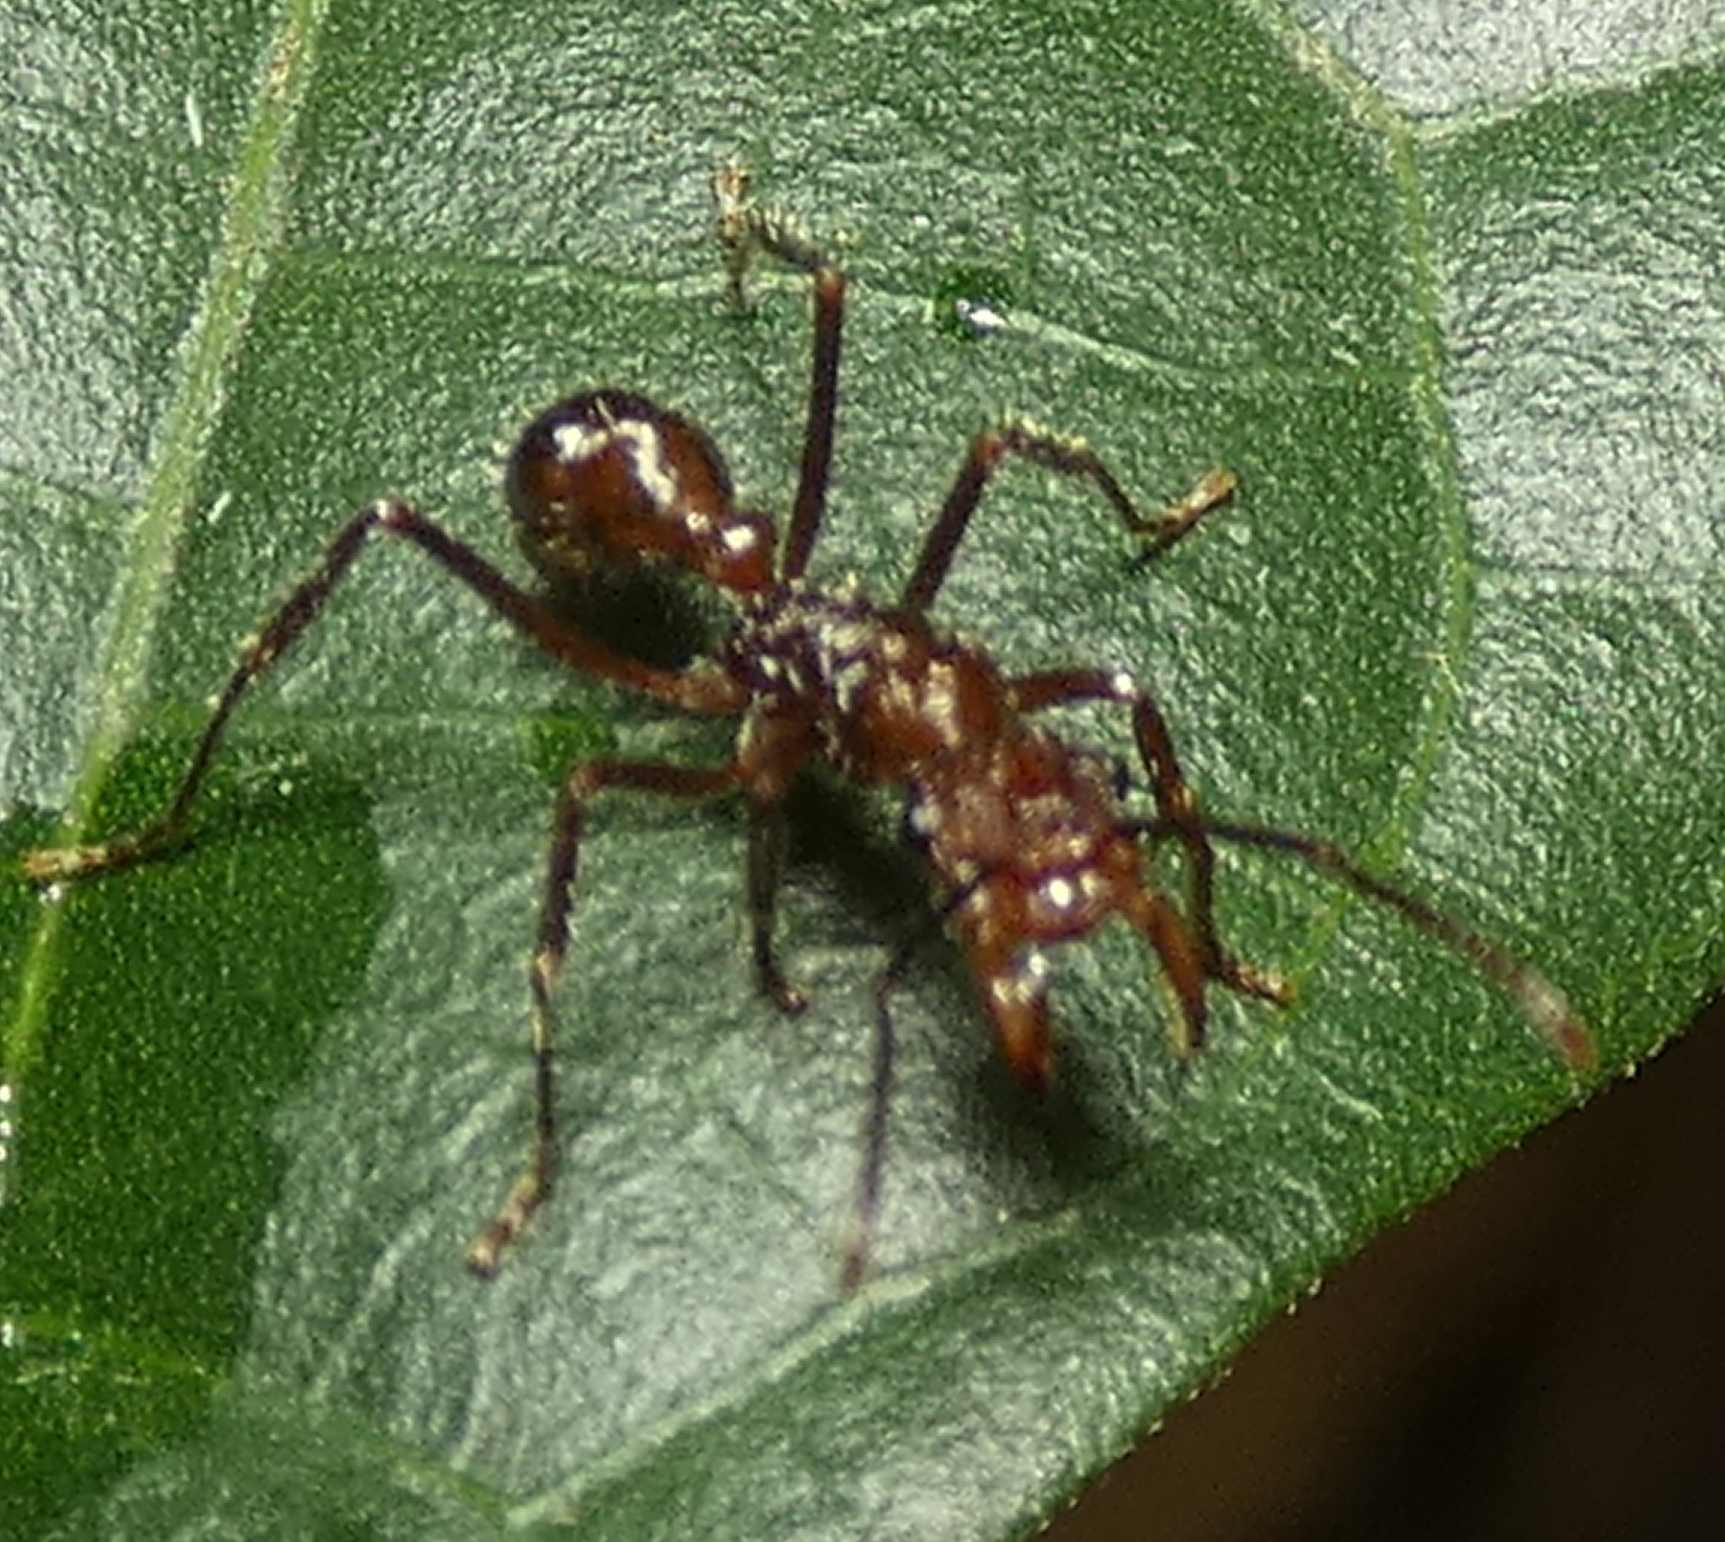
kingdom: Animalia
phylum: Arthropoda
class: Insecta
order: Hymenoptera
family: Formicidae
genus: Ectatomma
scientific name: Ectatomma tuberculatum
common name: Ant
